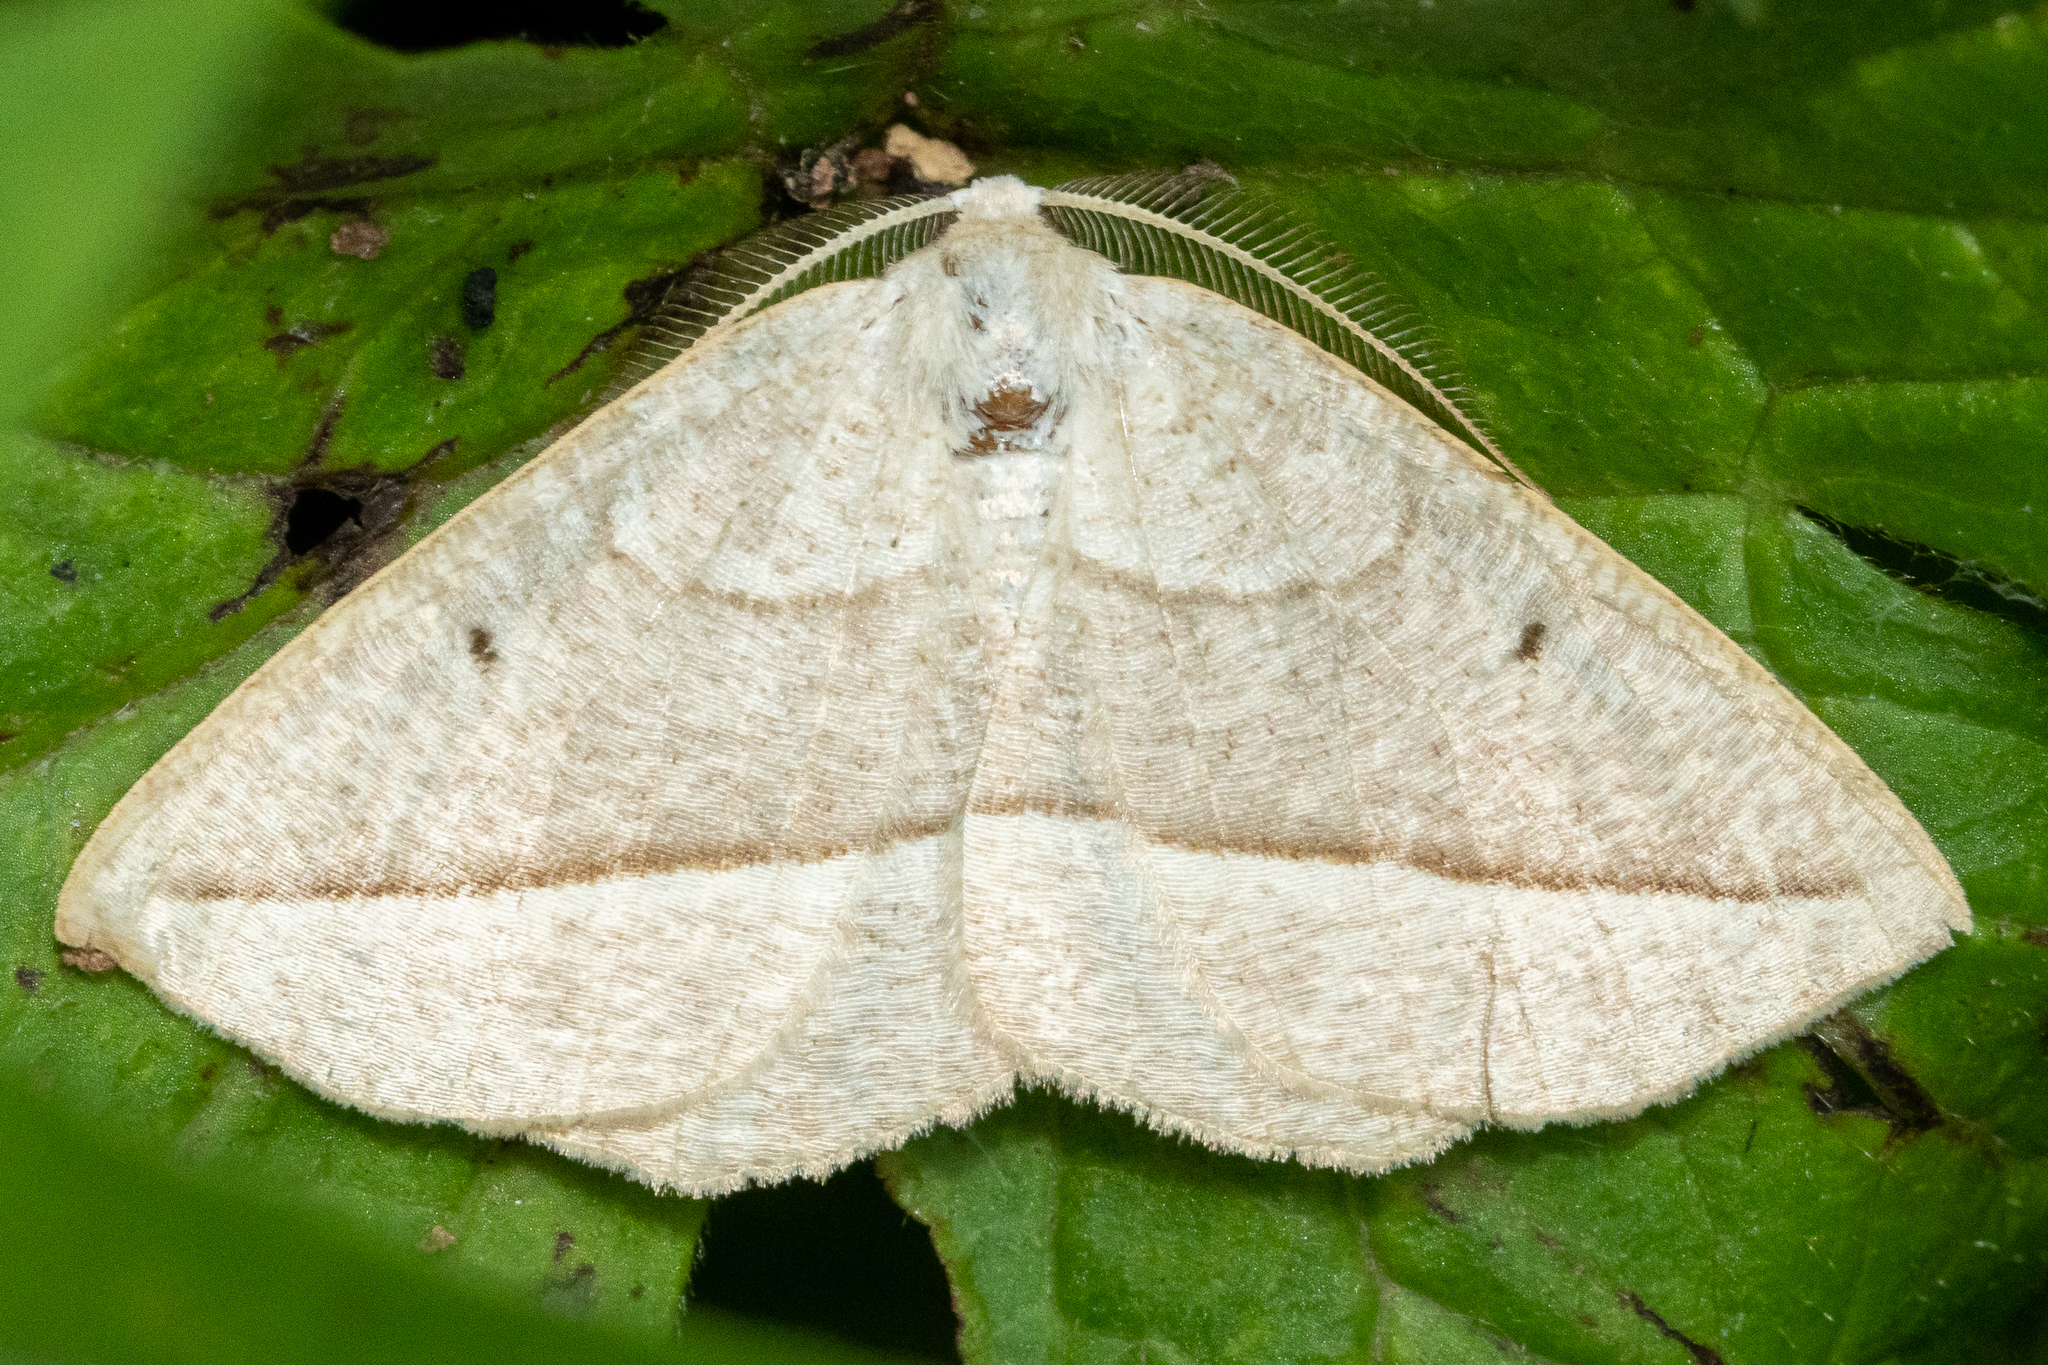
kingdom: Animalia
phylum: Arthropoda
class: Insecta
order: Lepidoptera
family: Geometridae
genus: Eusarca
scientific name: Eusarca confusaria
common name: Confused eusarca
